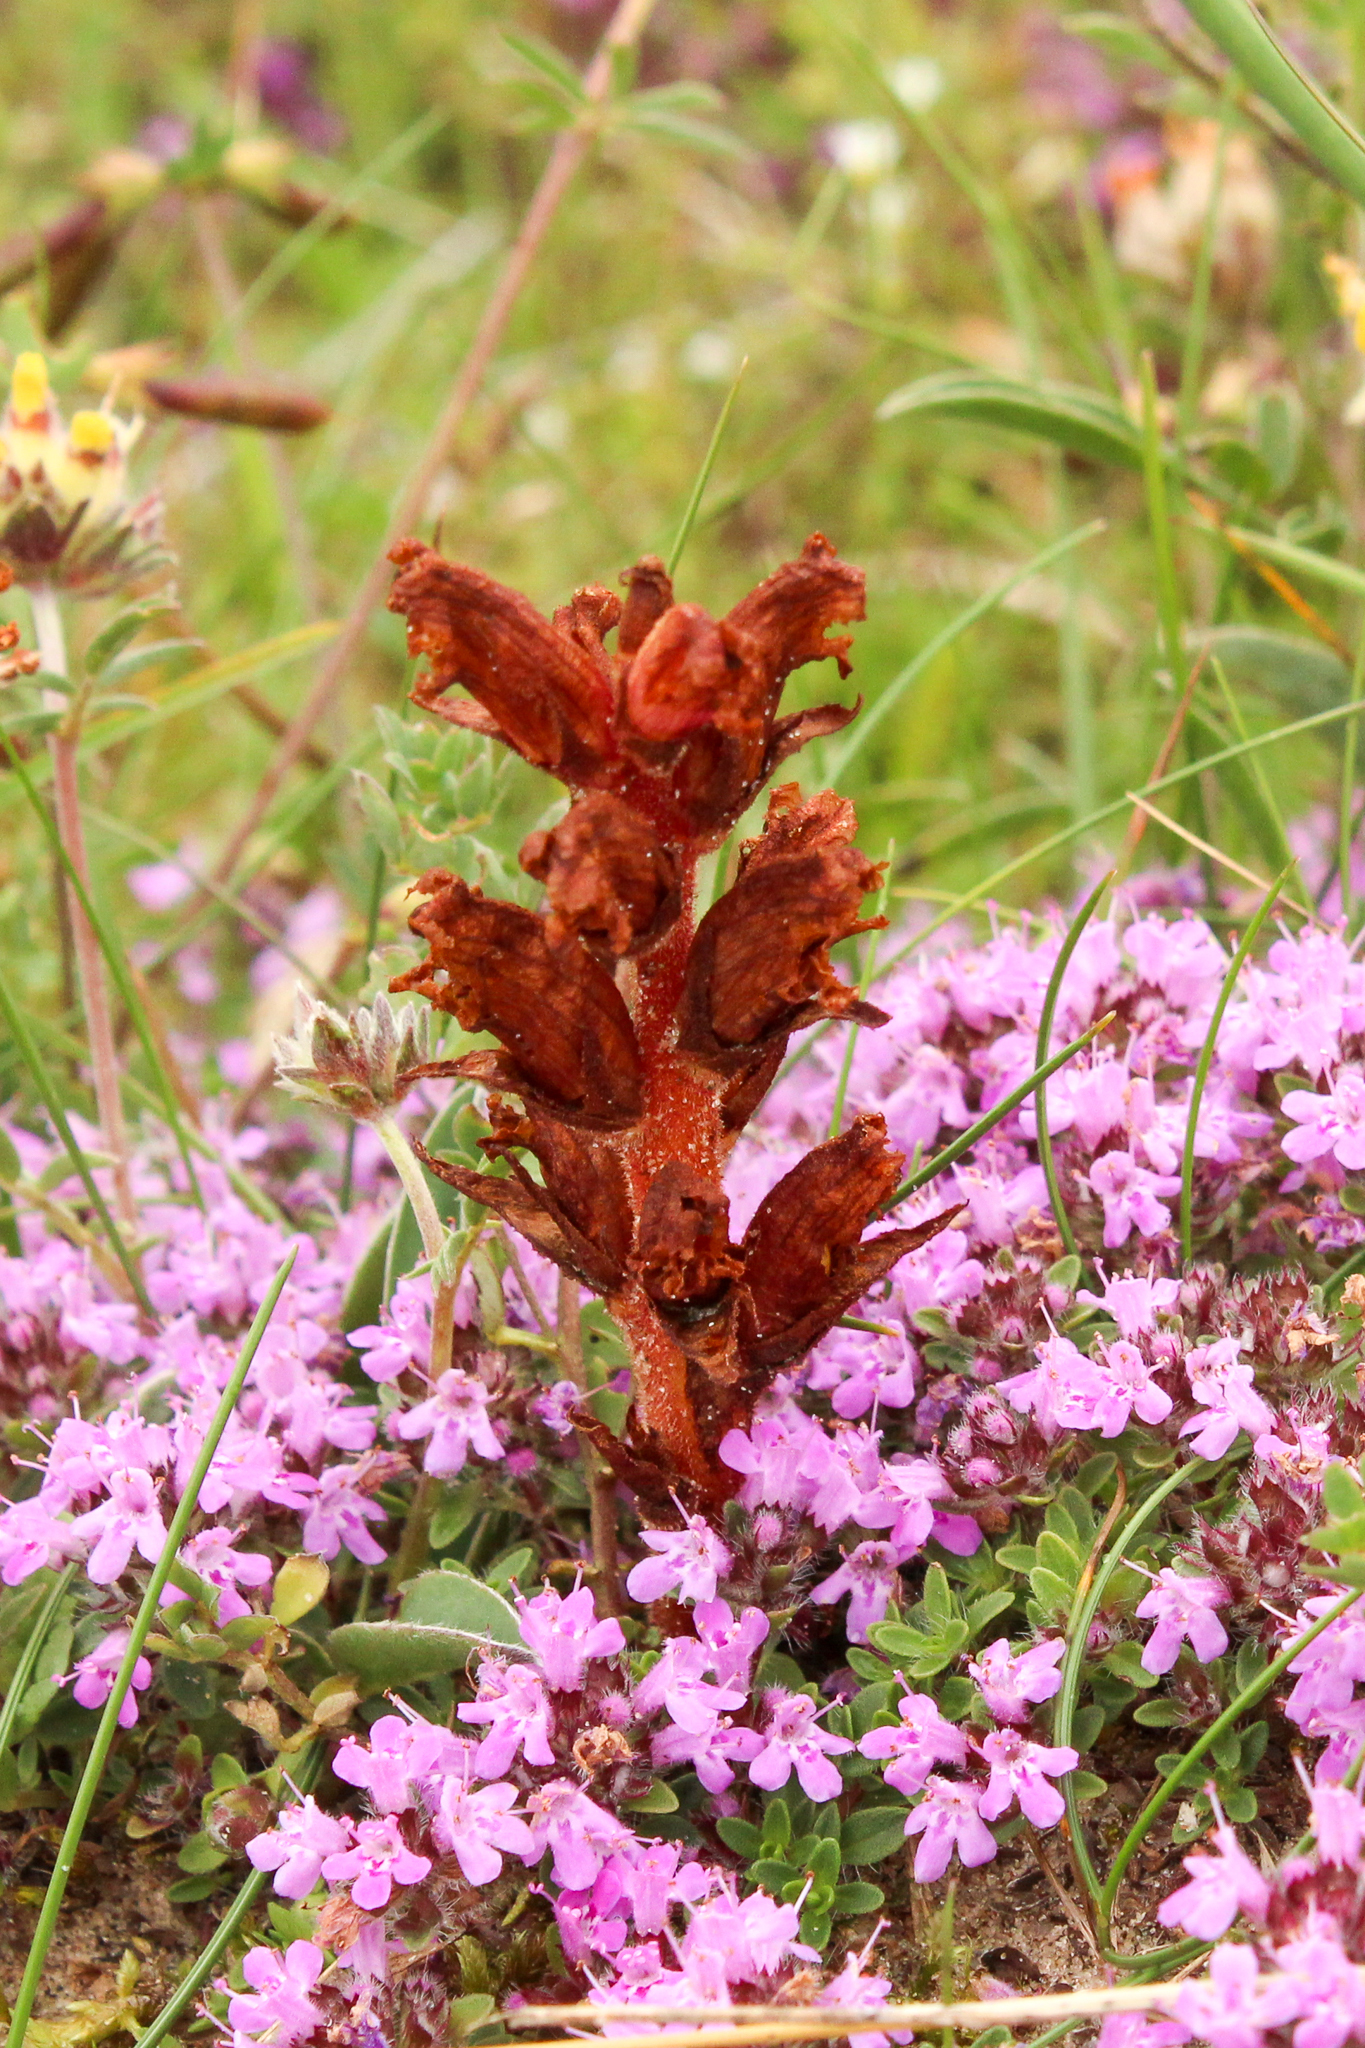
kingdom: Plantae
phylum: Tracheophyta
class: Magnoliopsida
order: Lamiales
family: Orobanchaceae
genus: Orobanche
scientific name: Orobanche alba
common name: Thyme broomrape
